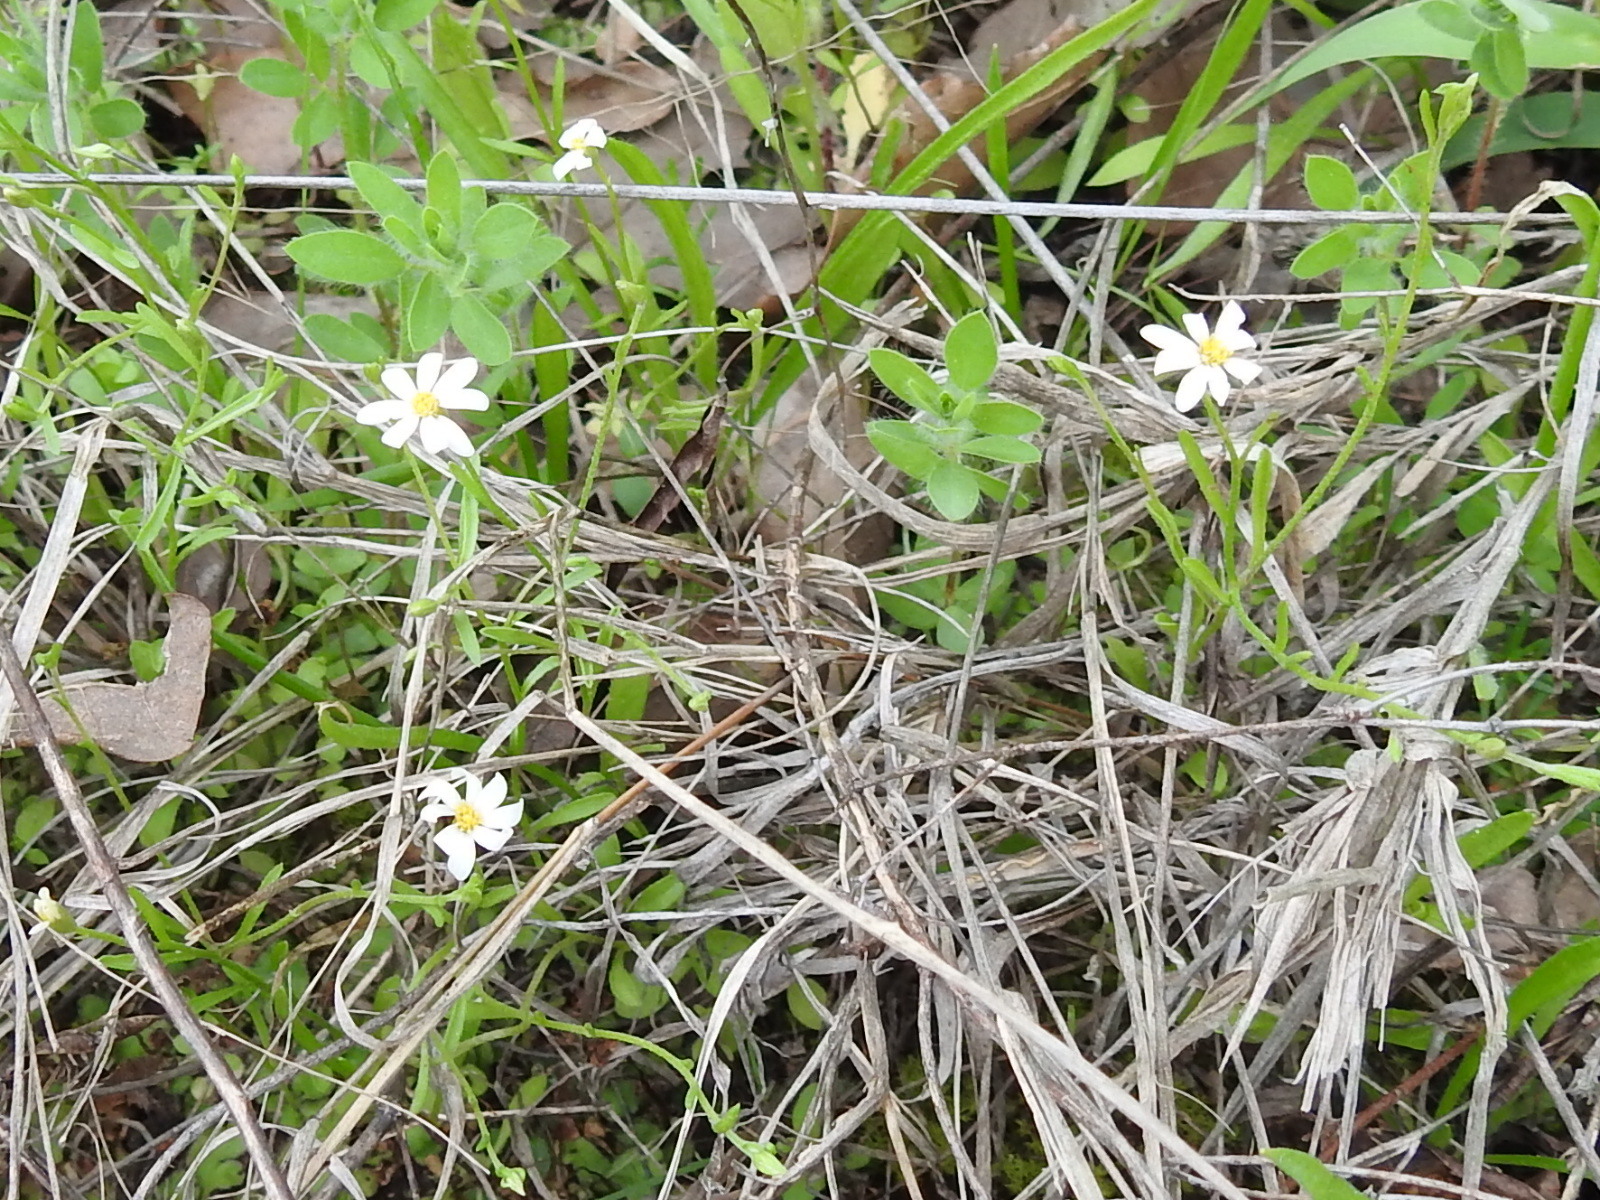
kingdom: Plantae
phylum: Tracheophyta
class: Magnoliopsida
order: Asterales
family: Asteraceae
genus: Chaetopappa
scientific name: Chaetopappa asteroides
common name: Tiny lazy daisy
